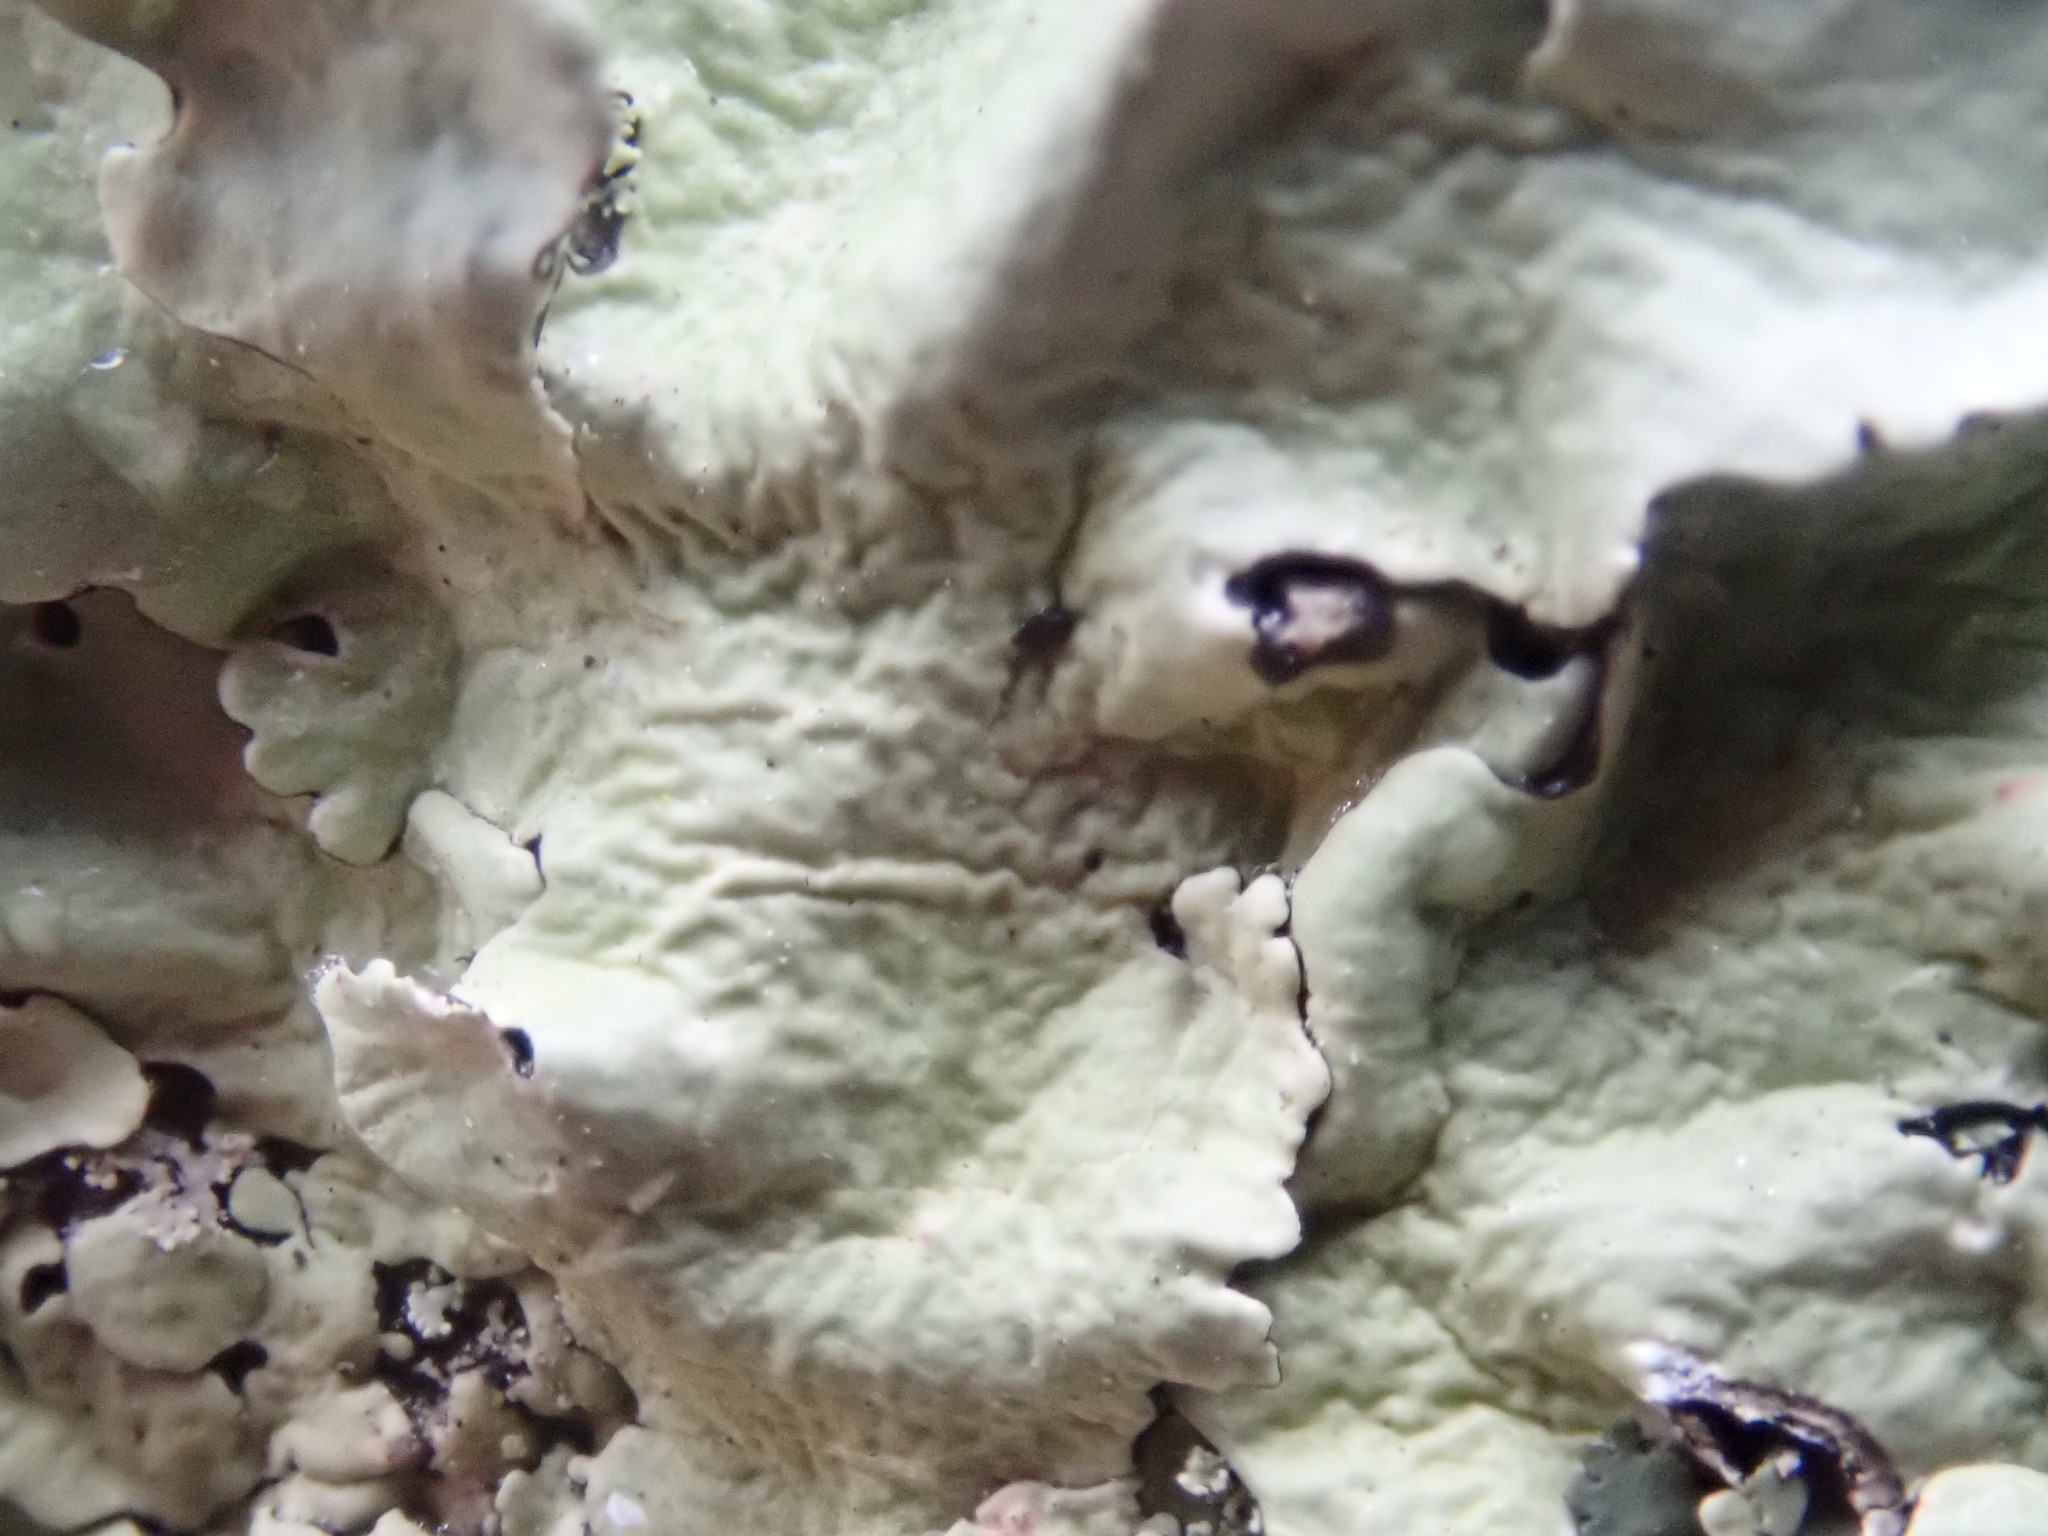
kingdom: Fungi
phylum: Ascomycota
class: Lecanoromycetes
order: Lecanorales
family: Parmeliaceae
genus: Flavoparmelia
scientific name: Flavoparmelia caperata
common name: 40-mile per hour lichen
